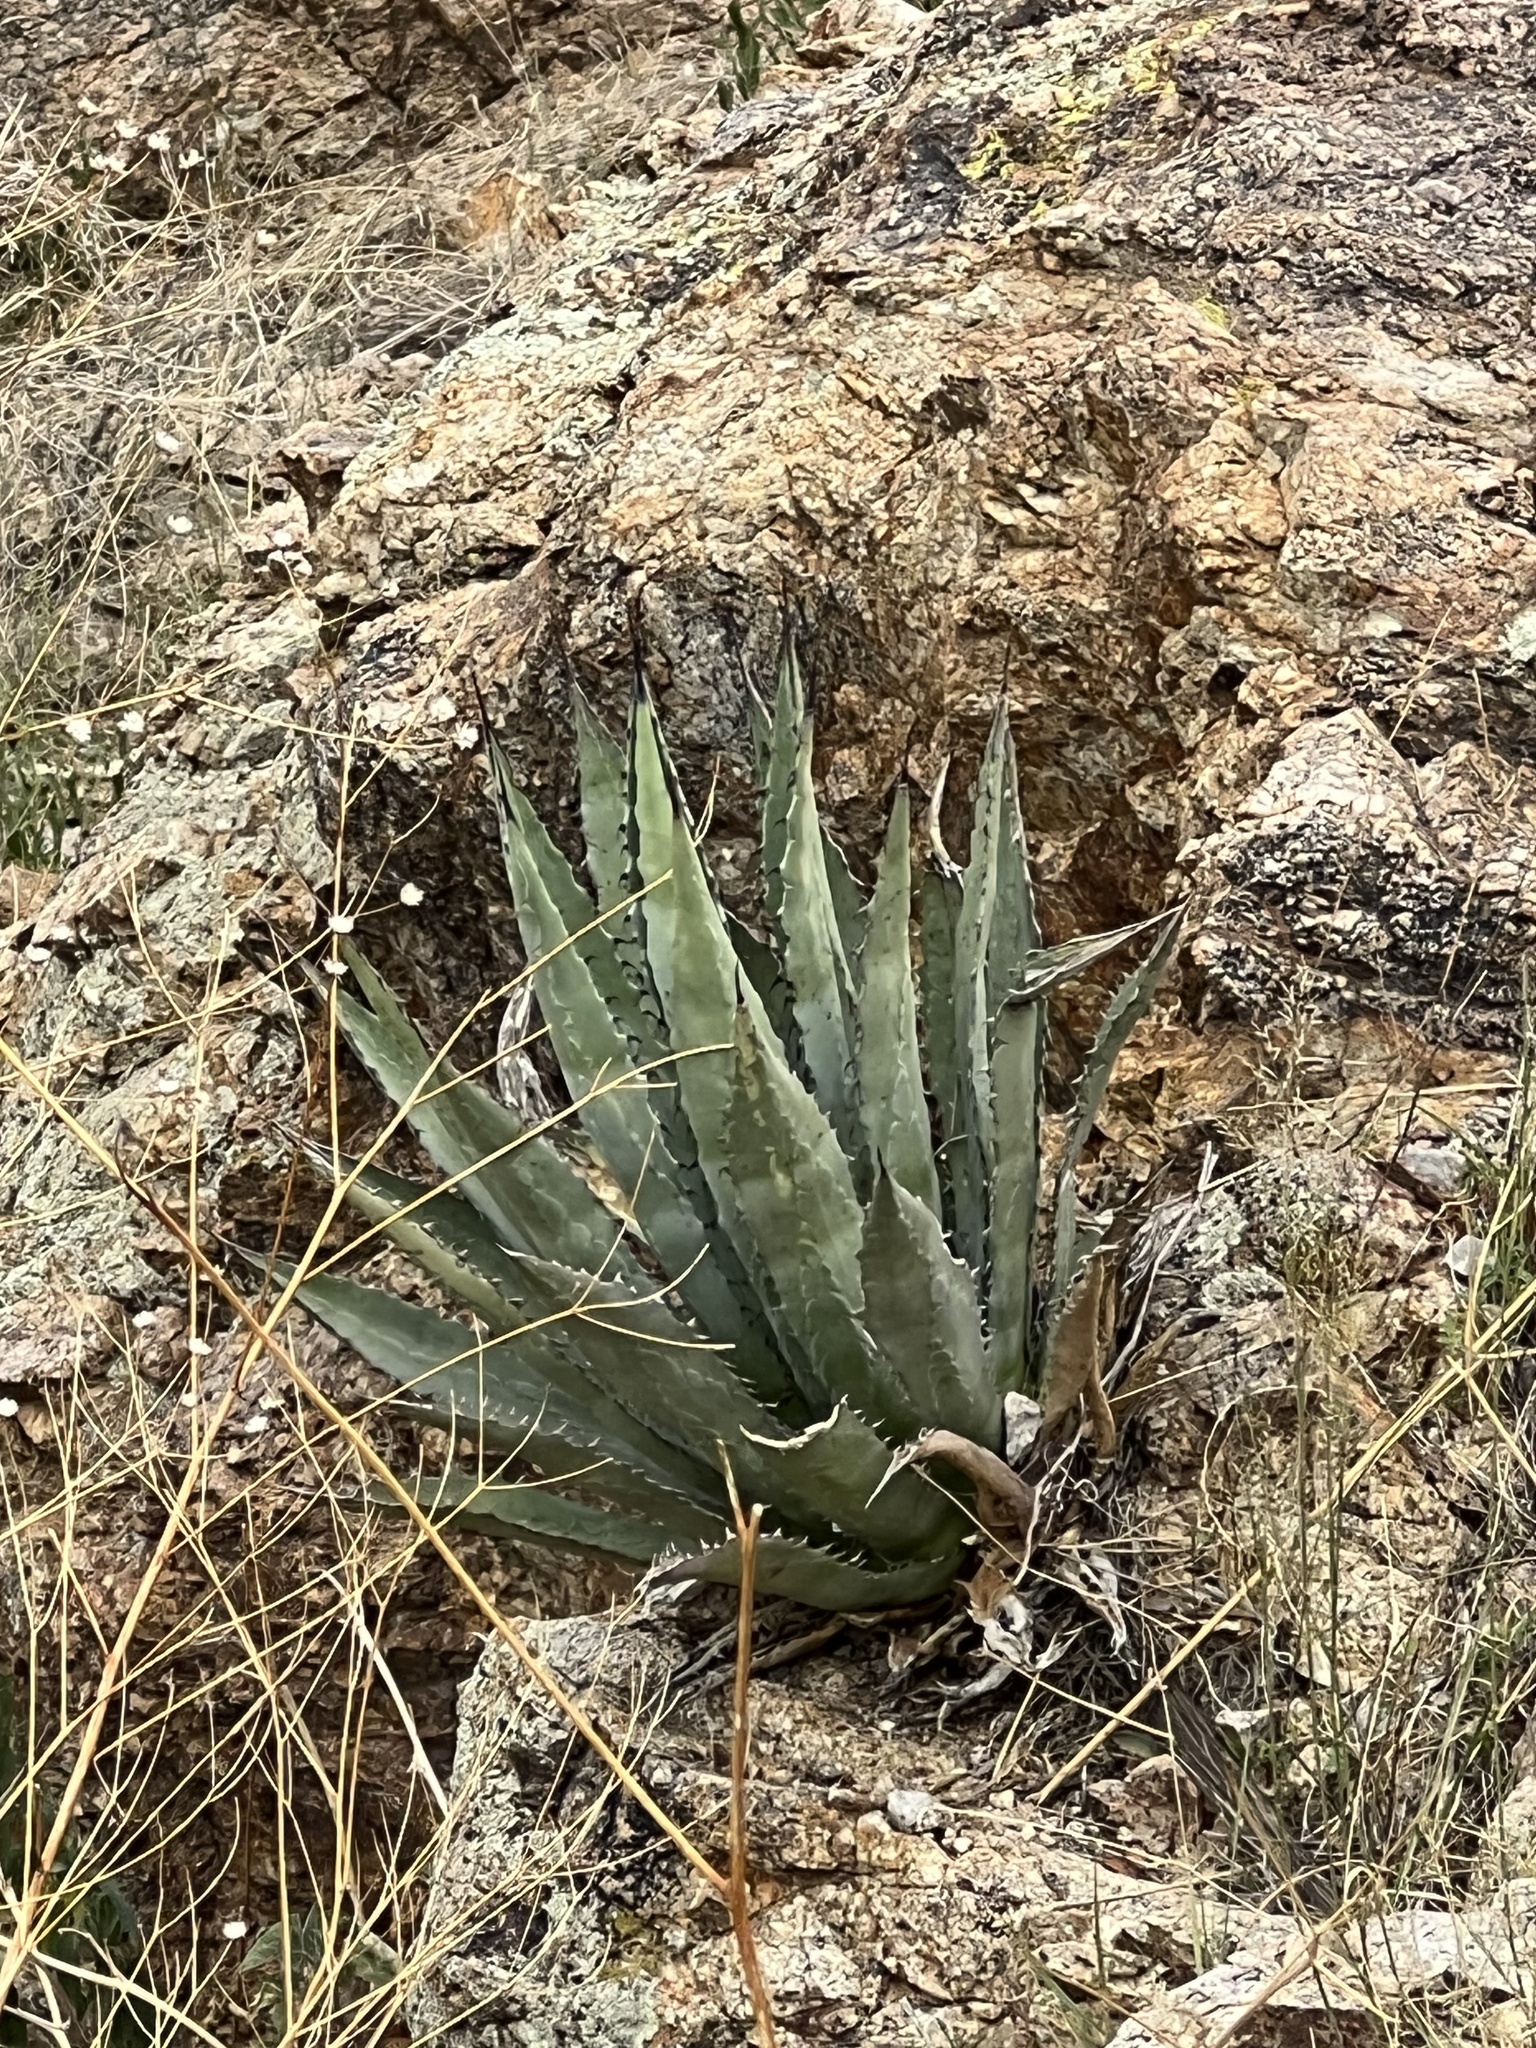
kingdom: Plantae
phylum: Tracheophyta
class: Liliopsida
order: Asparagales
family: Asparagaceae
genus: Agave
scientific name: Agave palmeri
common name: Palmer agave
